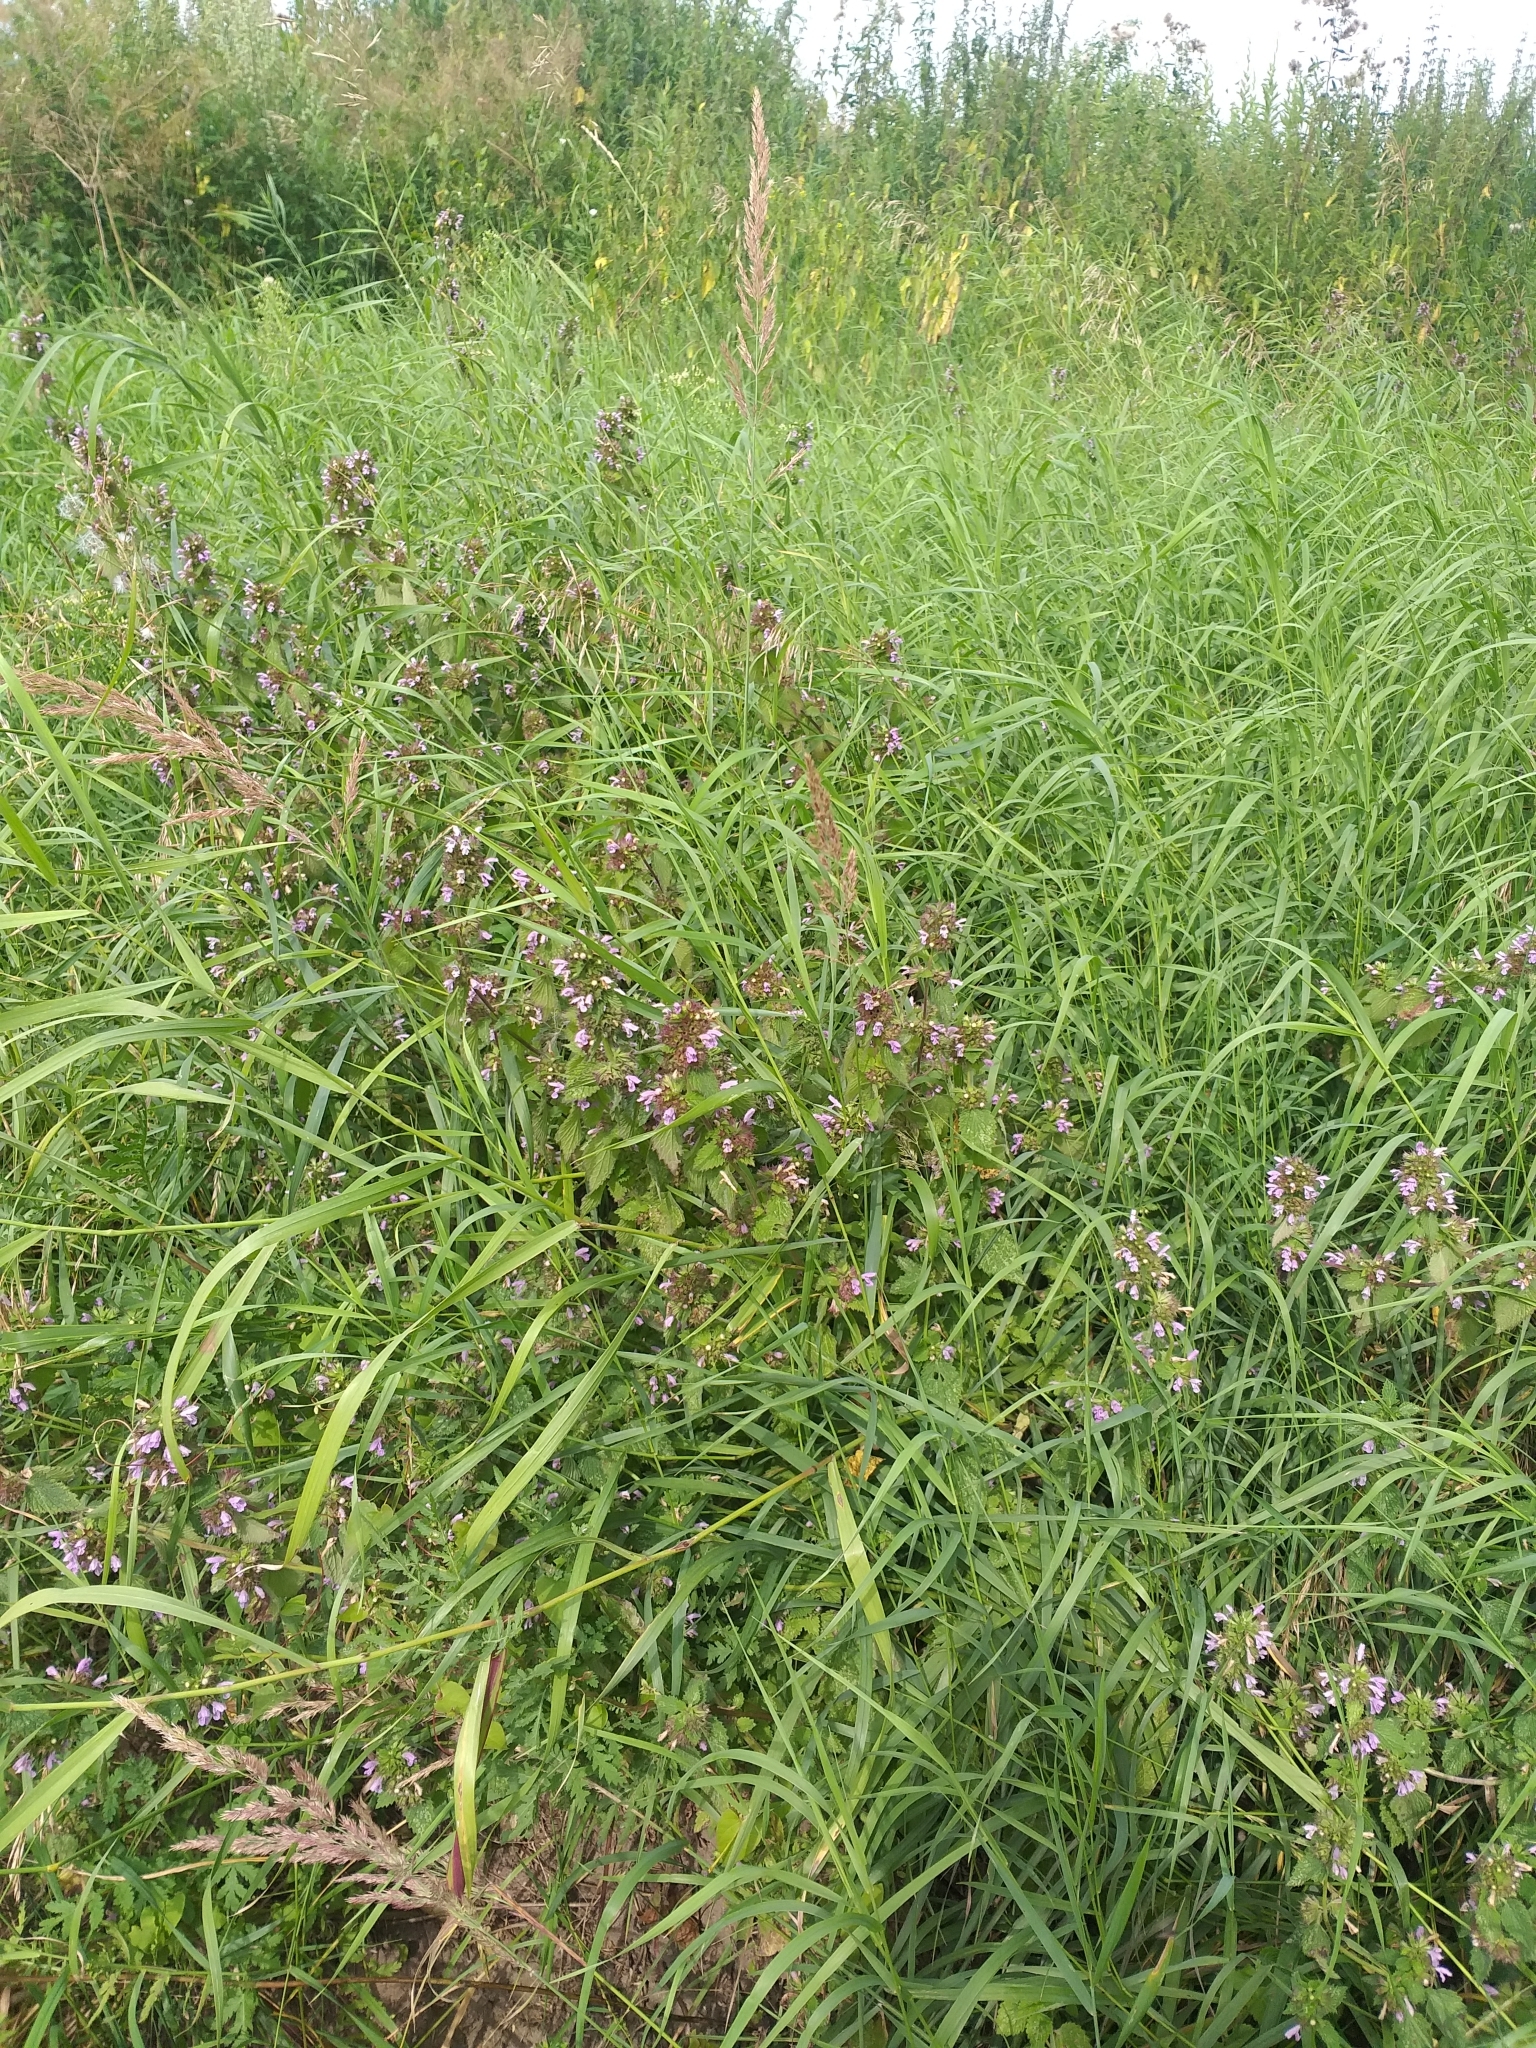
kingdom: Plantae
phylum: Tracheophyta
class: Magnoliopsida
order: Lamiales
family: Lamiaceae
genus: Ballota
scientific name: Ballota nigra
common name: Black horehound
